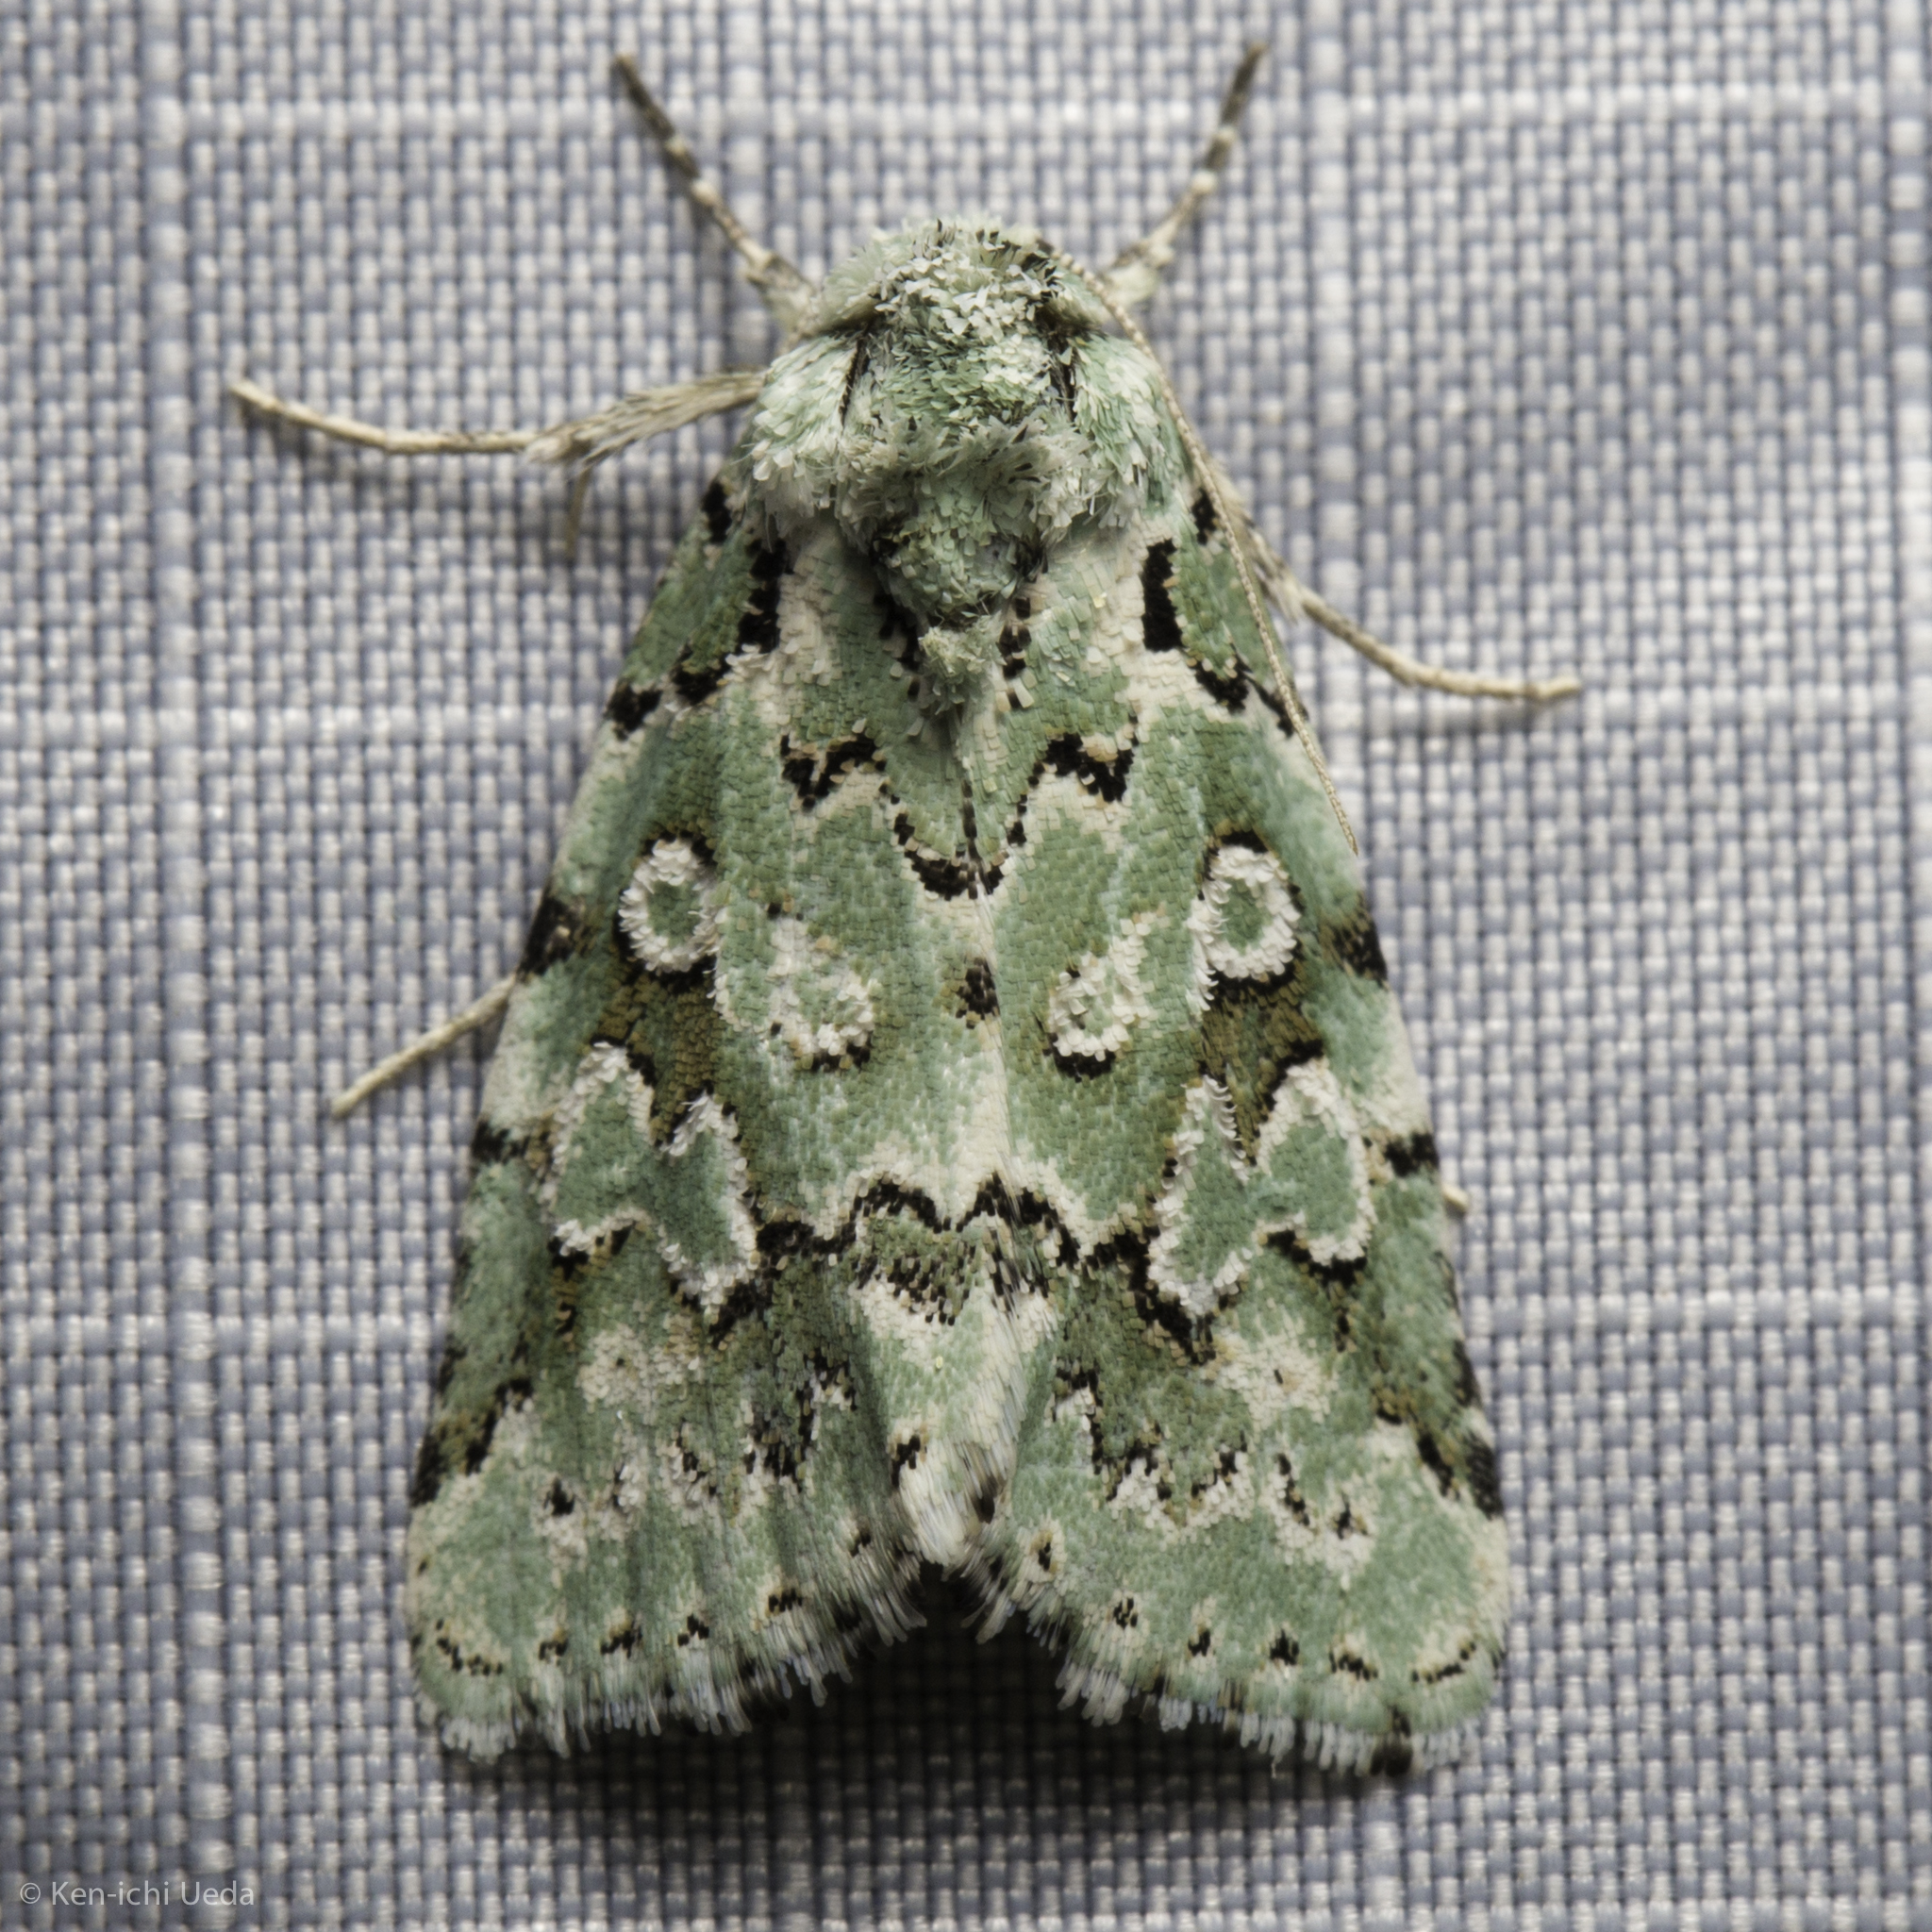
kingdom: Animalia
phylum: Arthropoda
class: Insecta
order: Lepidoptera
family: Noctuidae
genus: Bryolymnia
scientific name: Bryolymnia viridata
